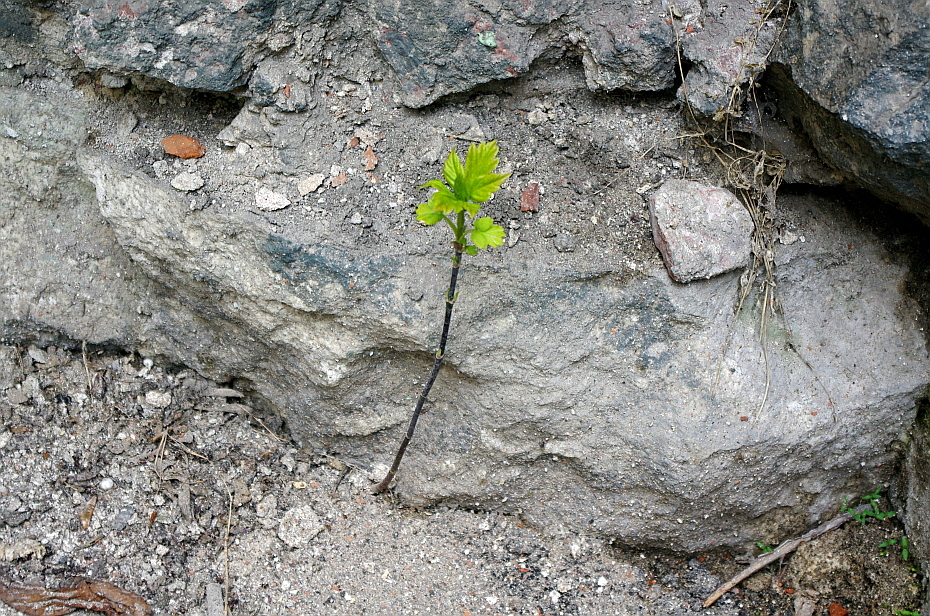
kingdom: Plantae
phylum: Tracheophyta
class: Magnoliopsida
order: Sapindales
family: Sapindaceae
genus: Acer
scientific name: Acer negundo
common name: Ashleaf maple
